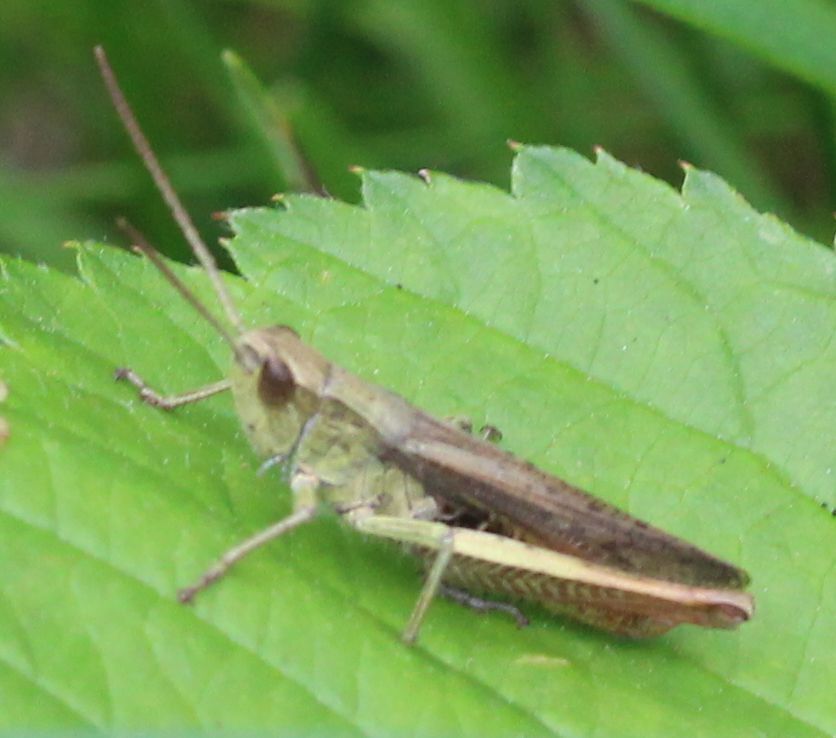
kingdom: Animalia
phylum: Arthropoda
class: Insecta
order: Orthoptera
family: Acrididae
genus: Chorthippus
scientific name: Chorthippus dorsatus
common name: Steppe grasshopper
